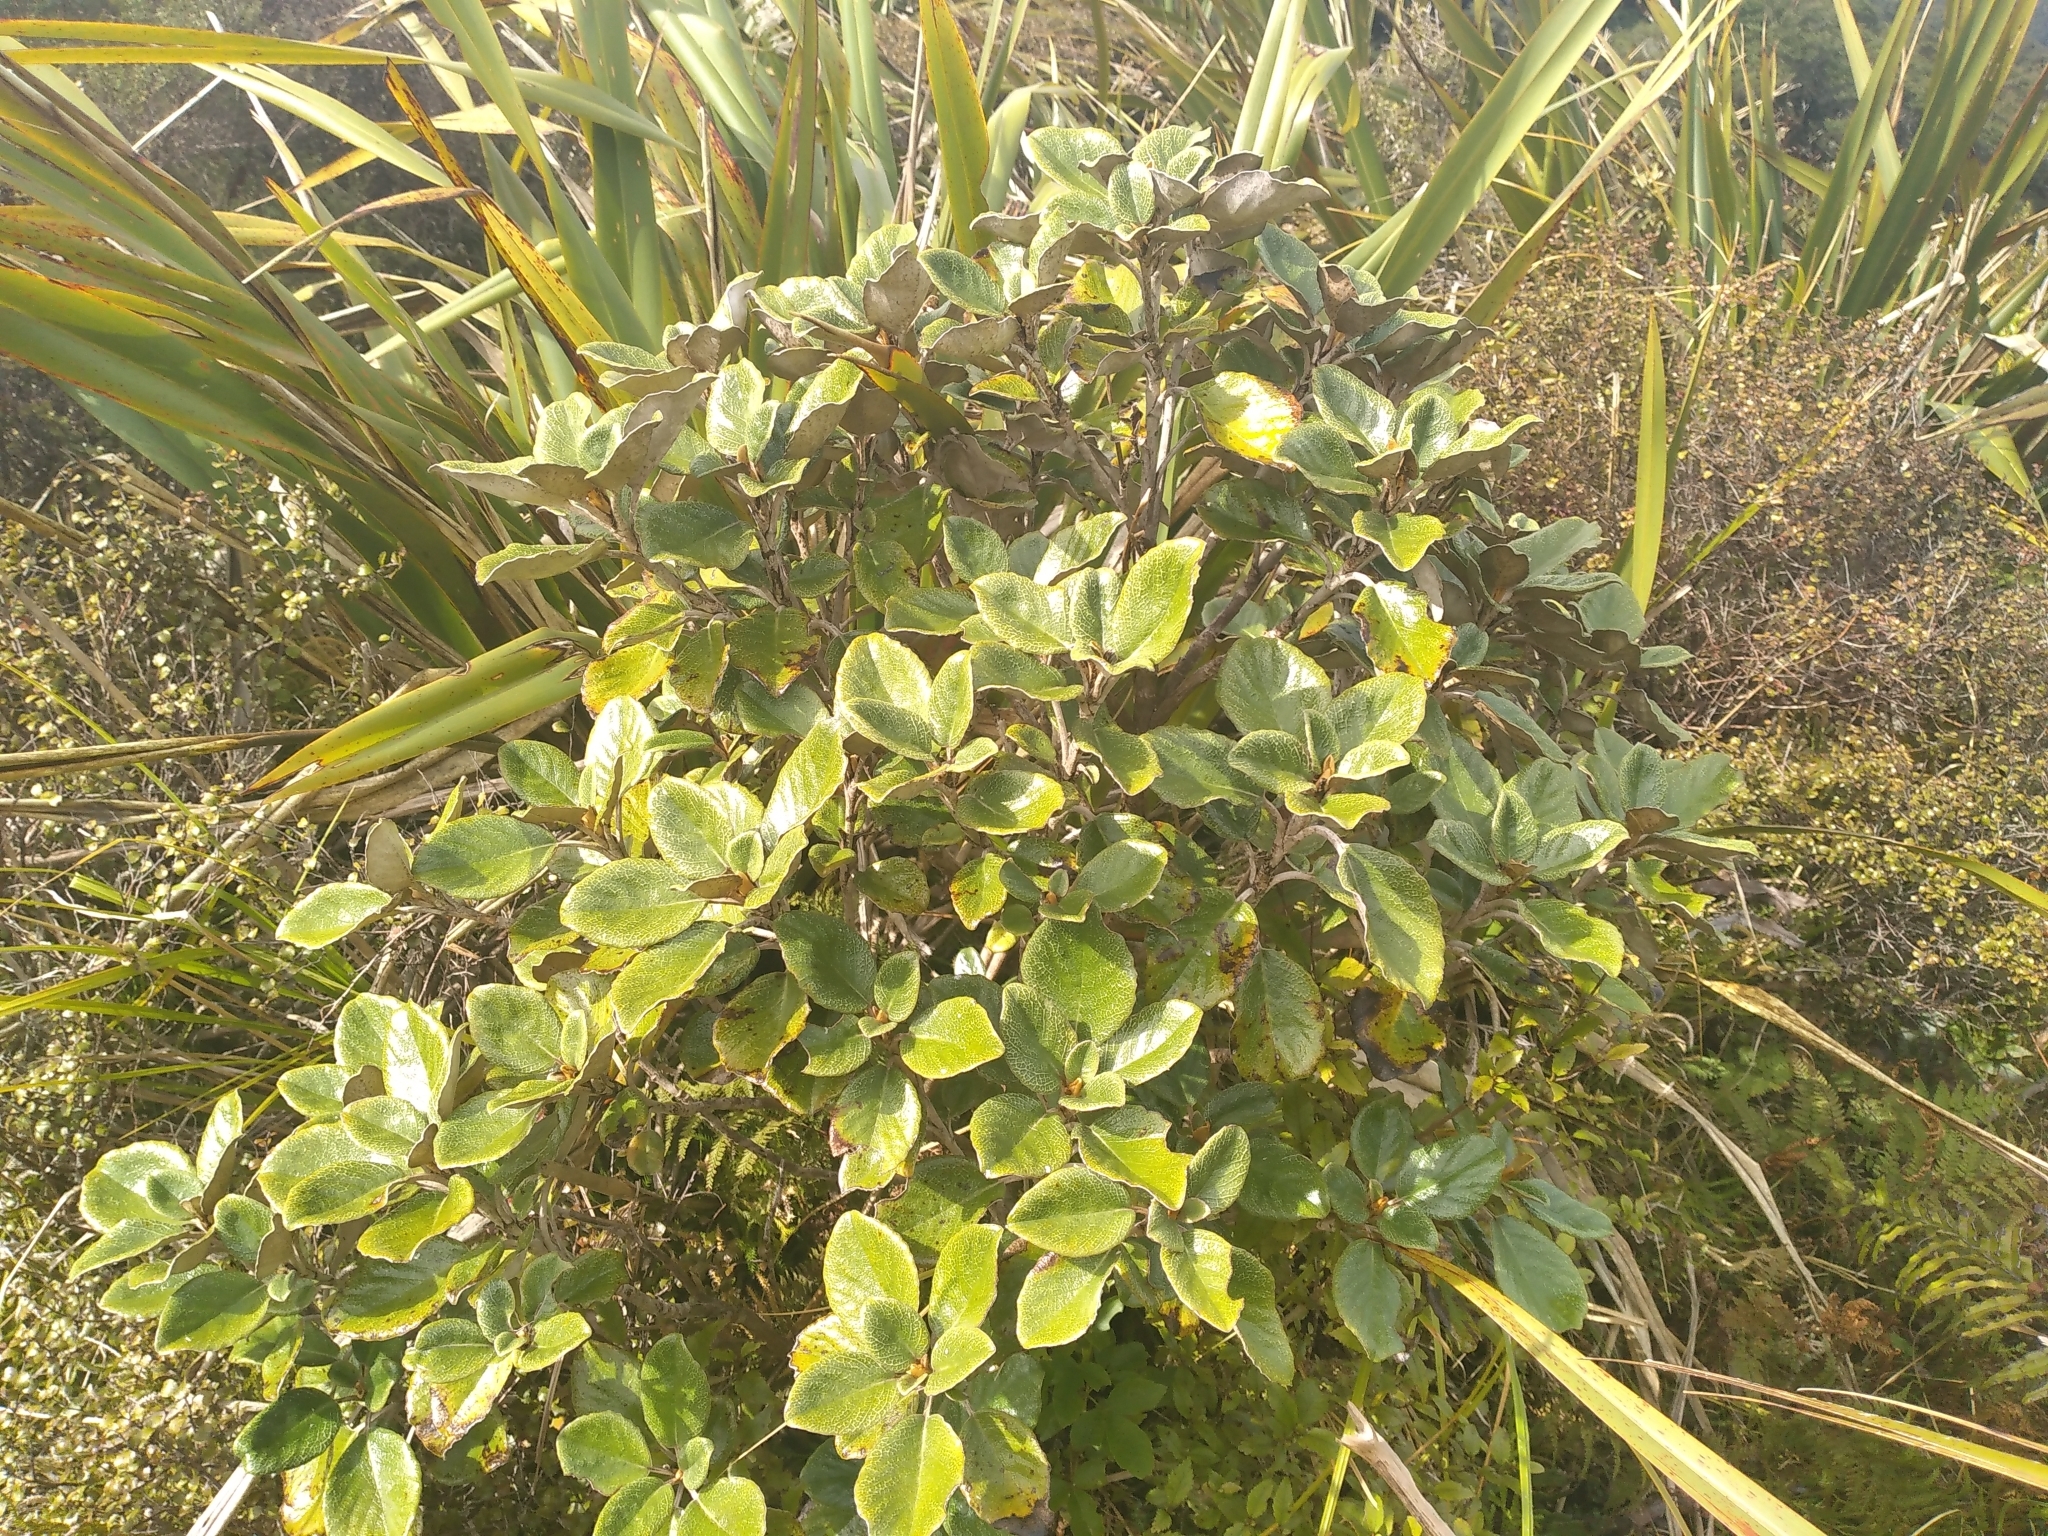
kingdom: Plantae
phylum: Tracheophyta
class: Magnoliopsida
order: Asterales
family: Asteraceae
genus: Brachyglottis
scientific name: Brachyglottis elaeagnifolia
